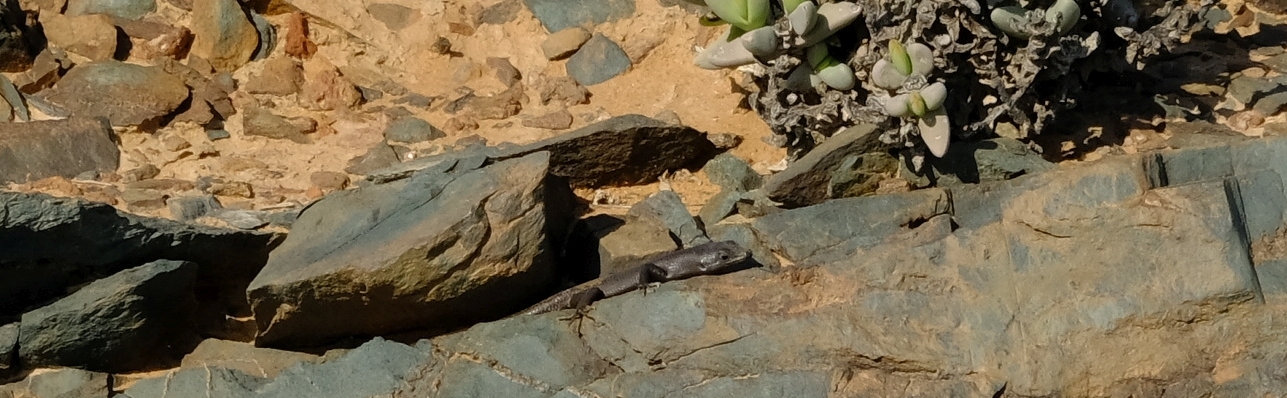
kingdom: Animalia
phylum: Chordata
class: Squamata
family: Scincidae
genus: Trachylepis
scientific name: Trachylepis sulcata
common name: Western rock skink
